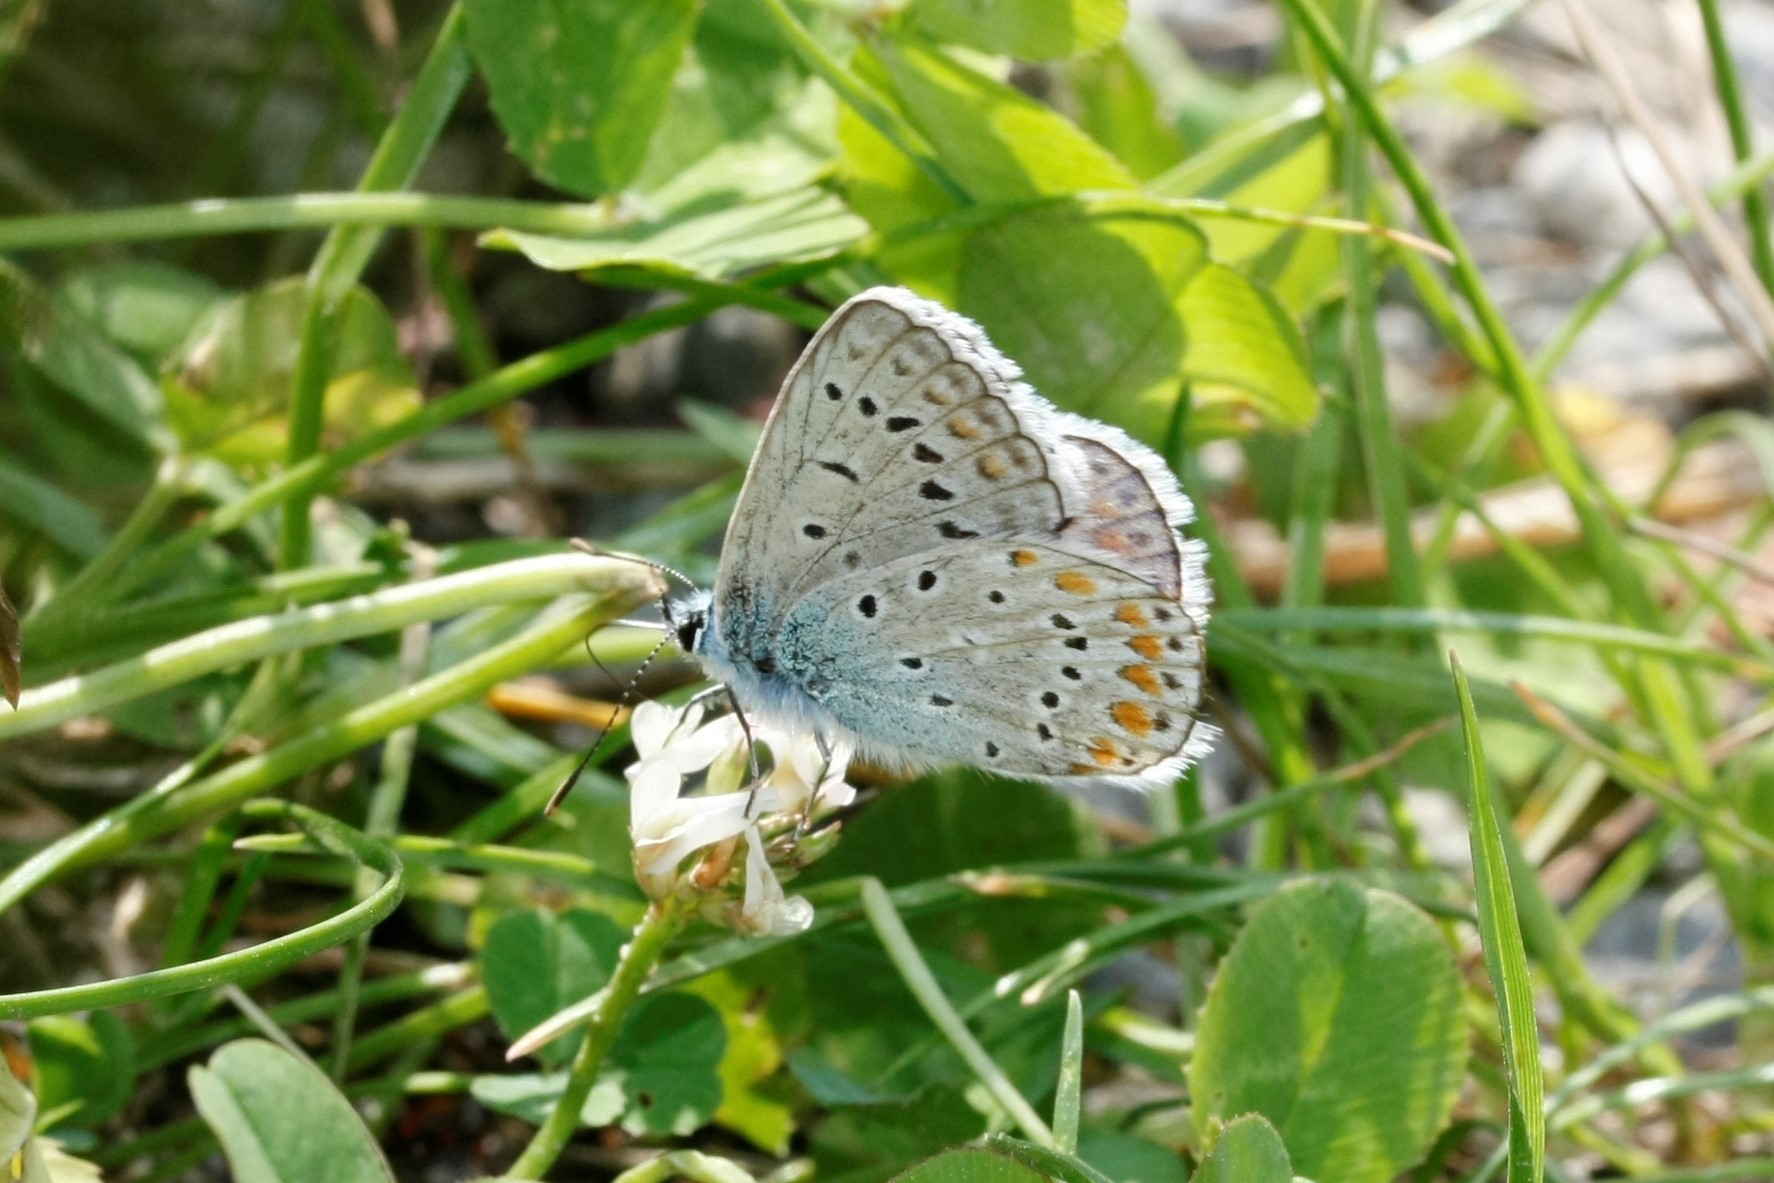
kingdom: Animalia
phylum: Arthropoda
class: Insecta
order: Lepidoptera
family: Lycaenidae
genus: Polyommatus
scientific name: Polyommatus icarus
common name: Common blue
